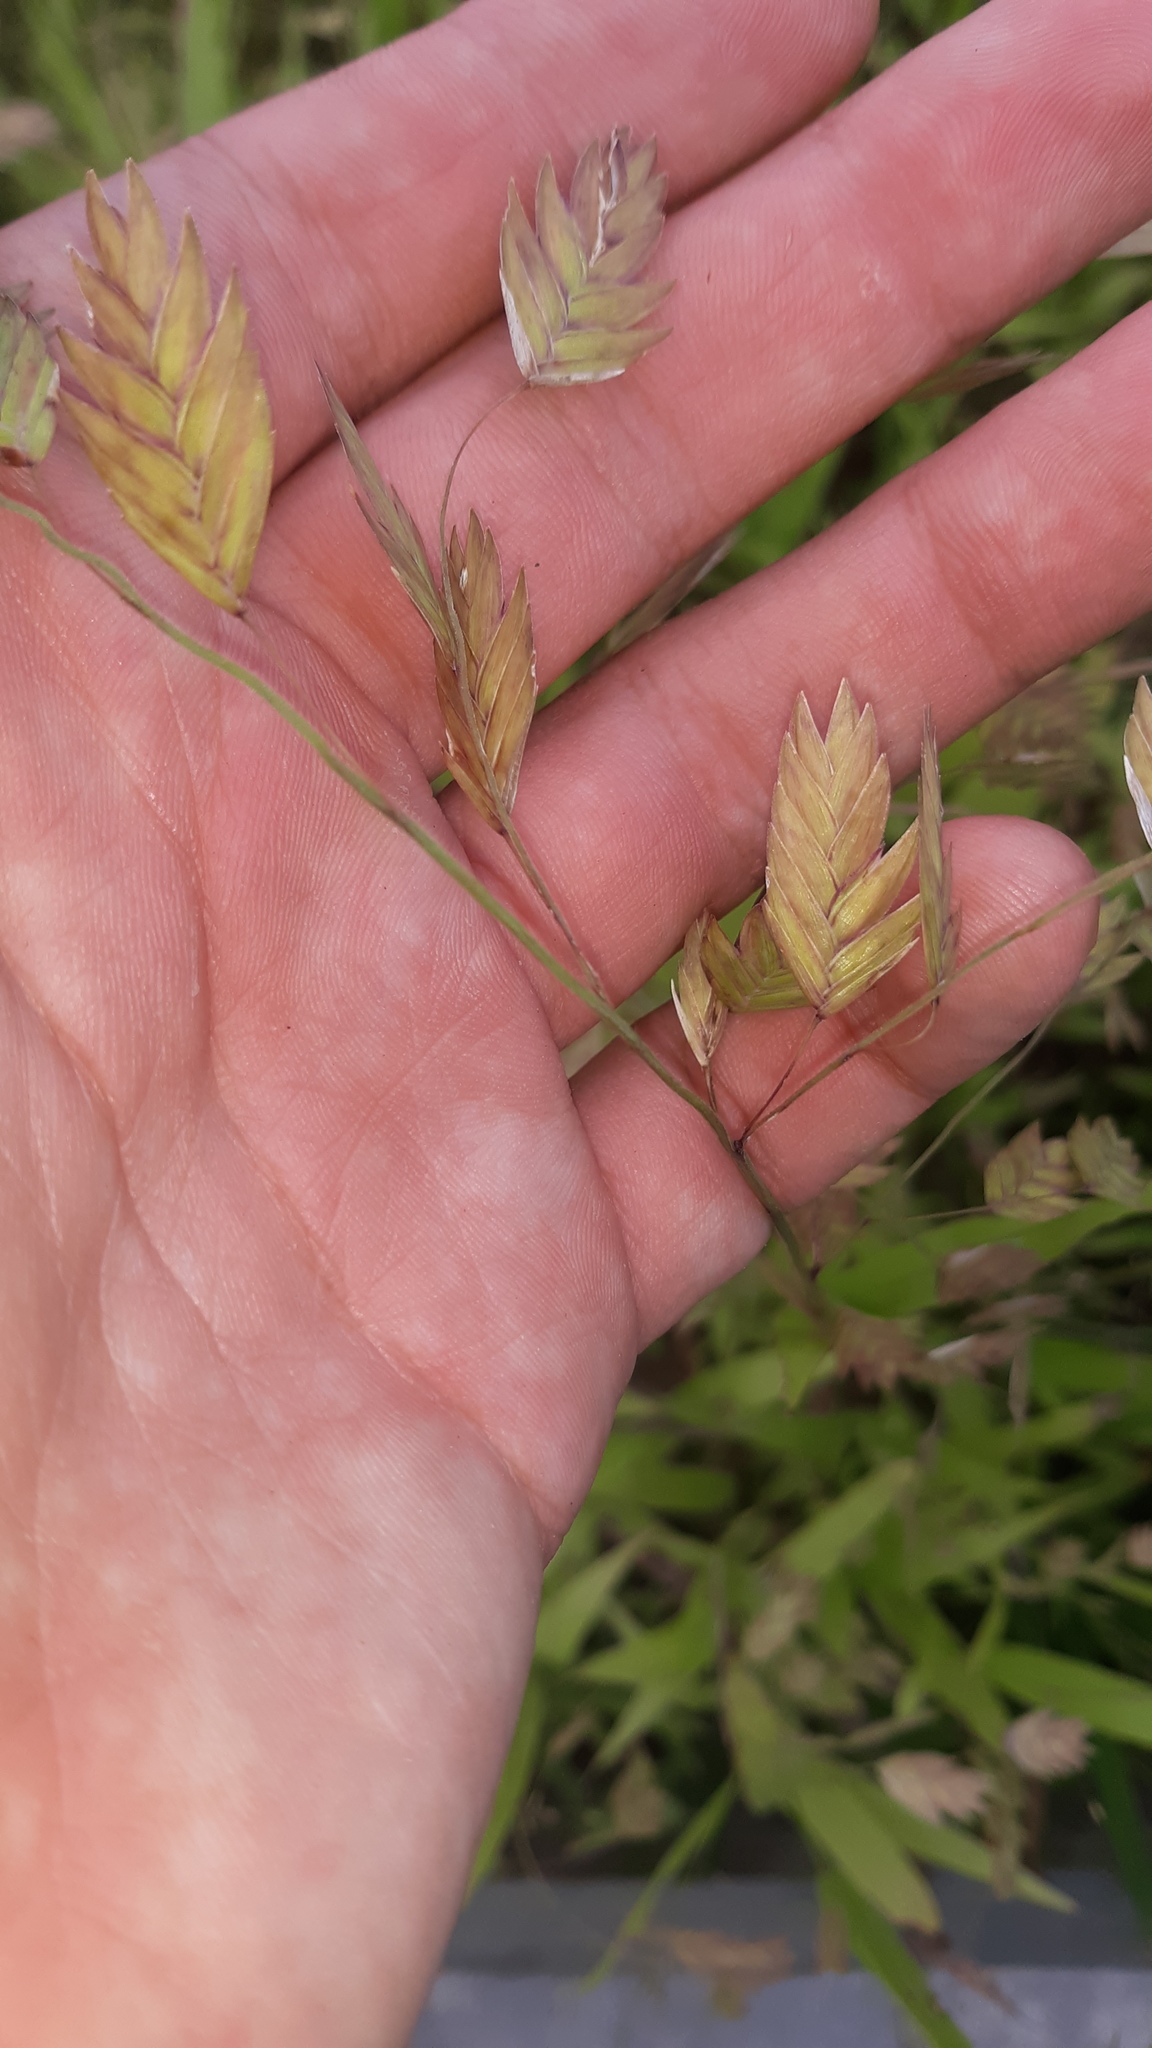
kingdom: Plantae
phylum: Tracheophyta
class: Liliopsida
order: Poales
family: Poaceae
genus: Chasmanthium
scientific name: Chasmanthium latifolium
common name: Broad-leaved chasmanthium
